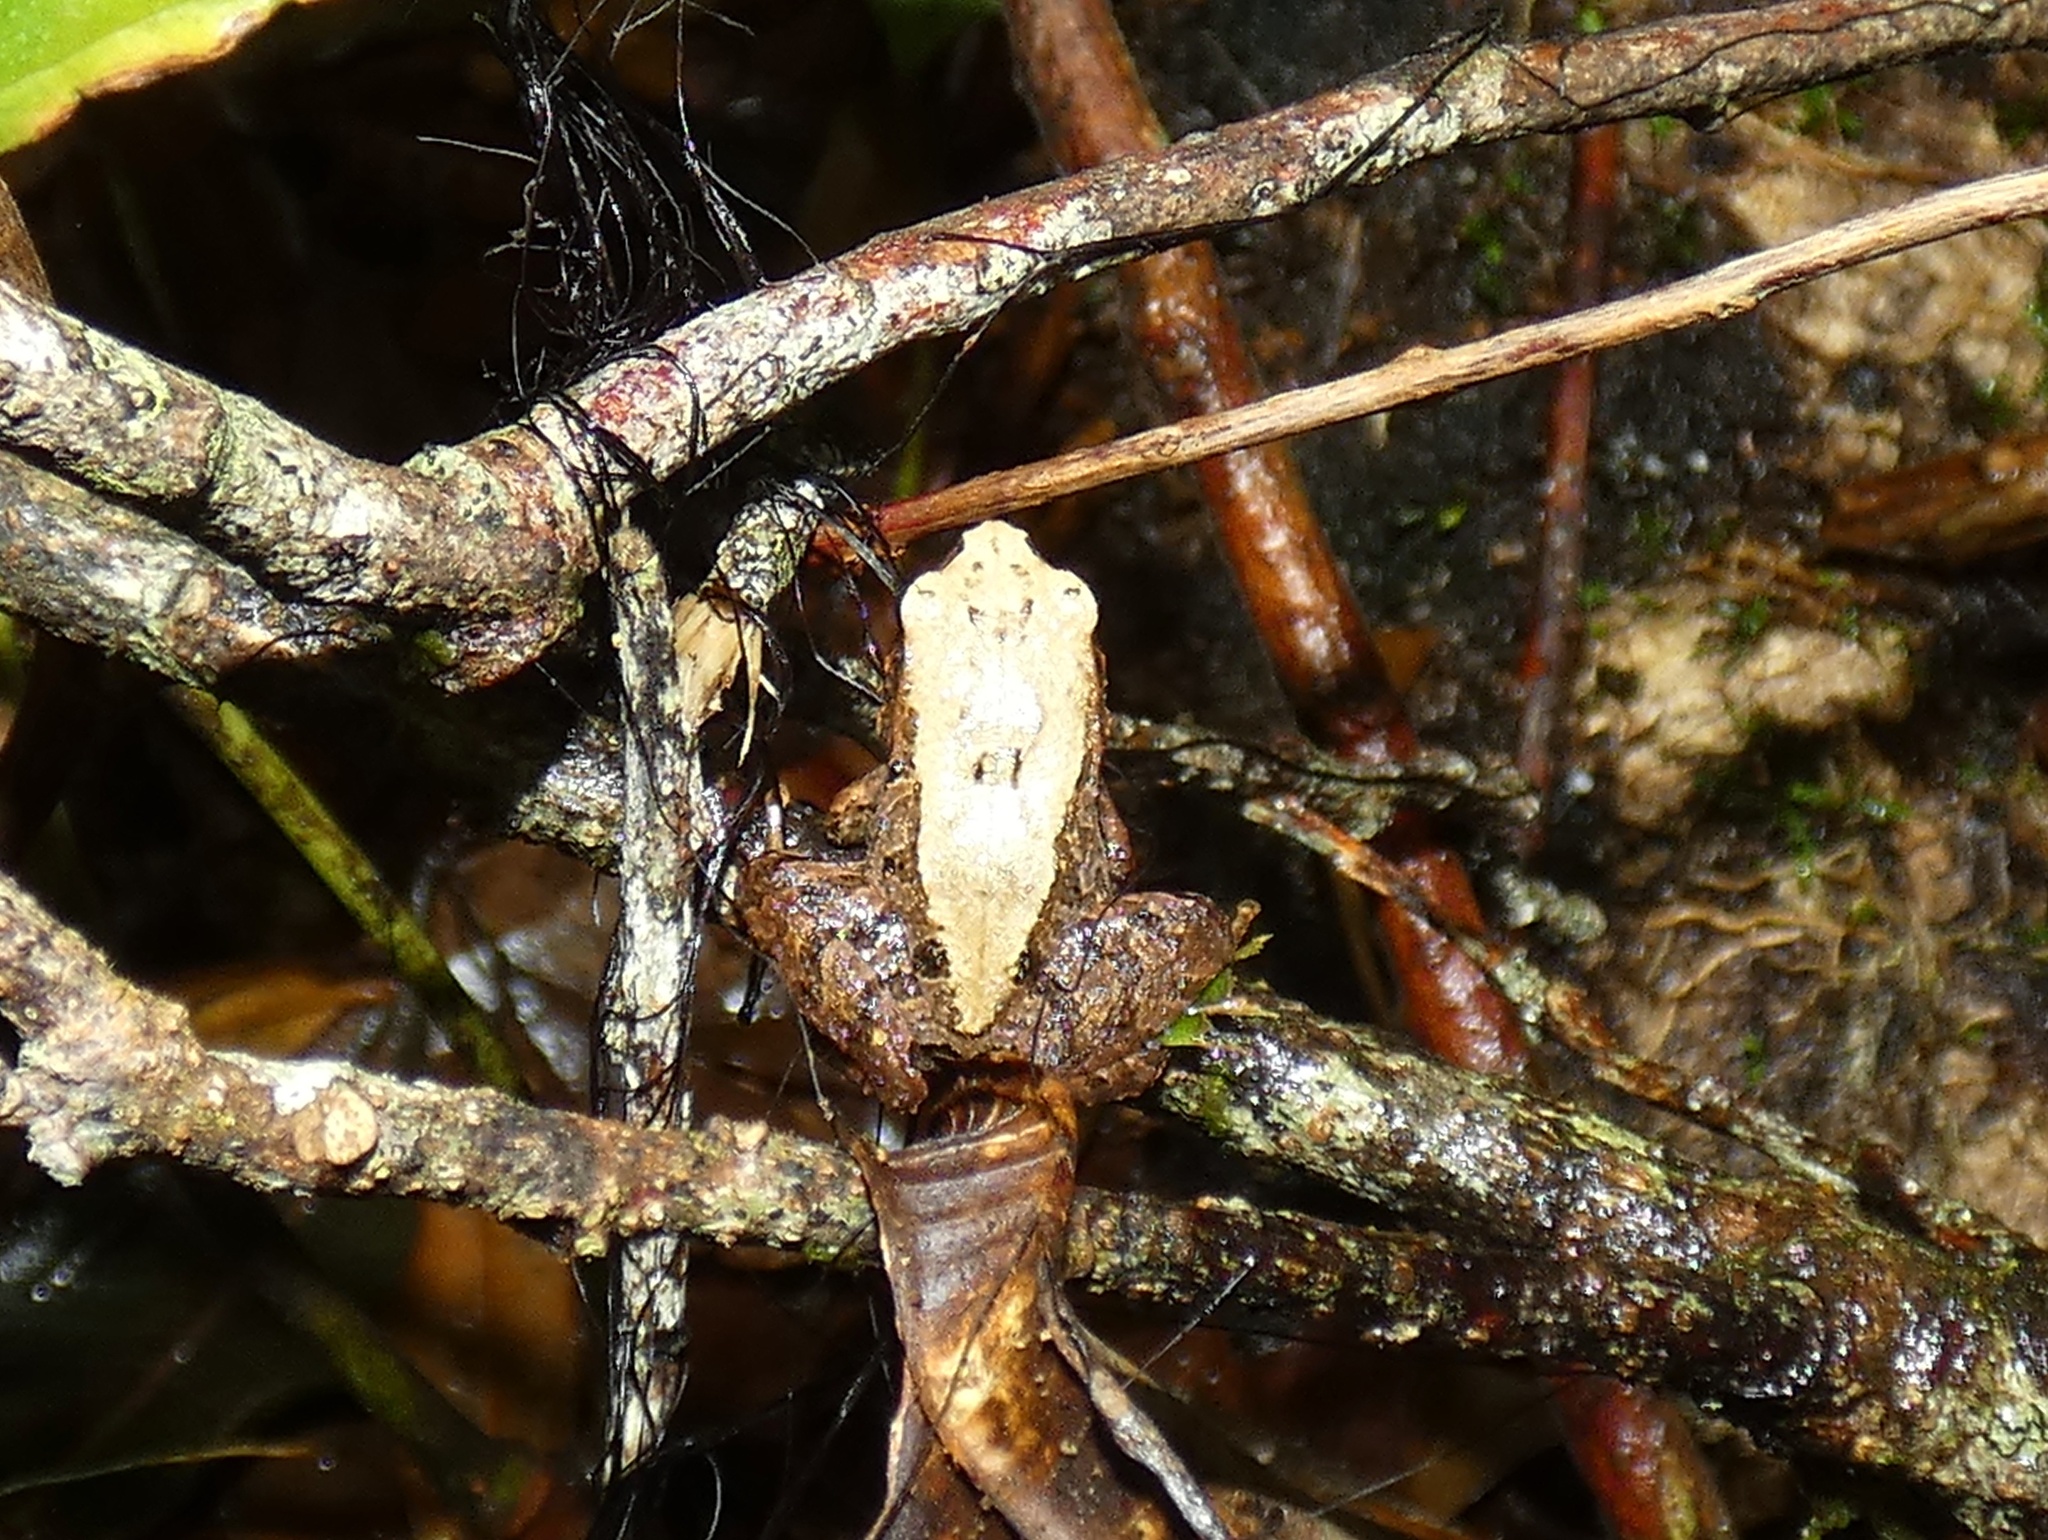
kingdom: Animalia
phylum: Chordata
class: Amphibia
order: Anura
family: Craugastoridae
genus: Craugastor
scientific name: Craugastor podiciferus
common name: Cerro utyum robber frog
